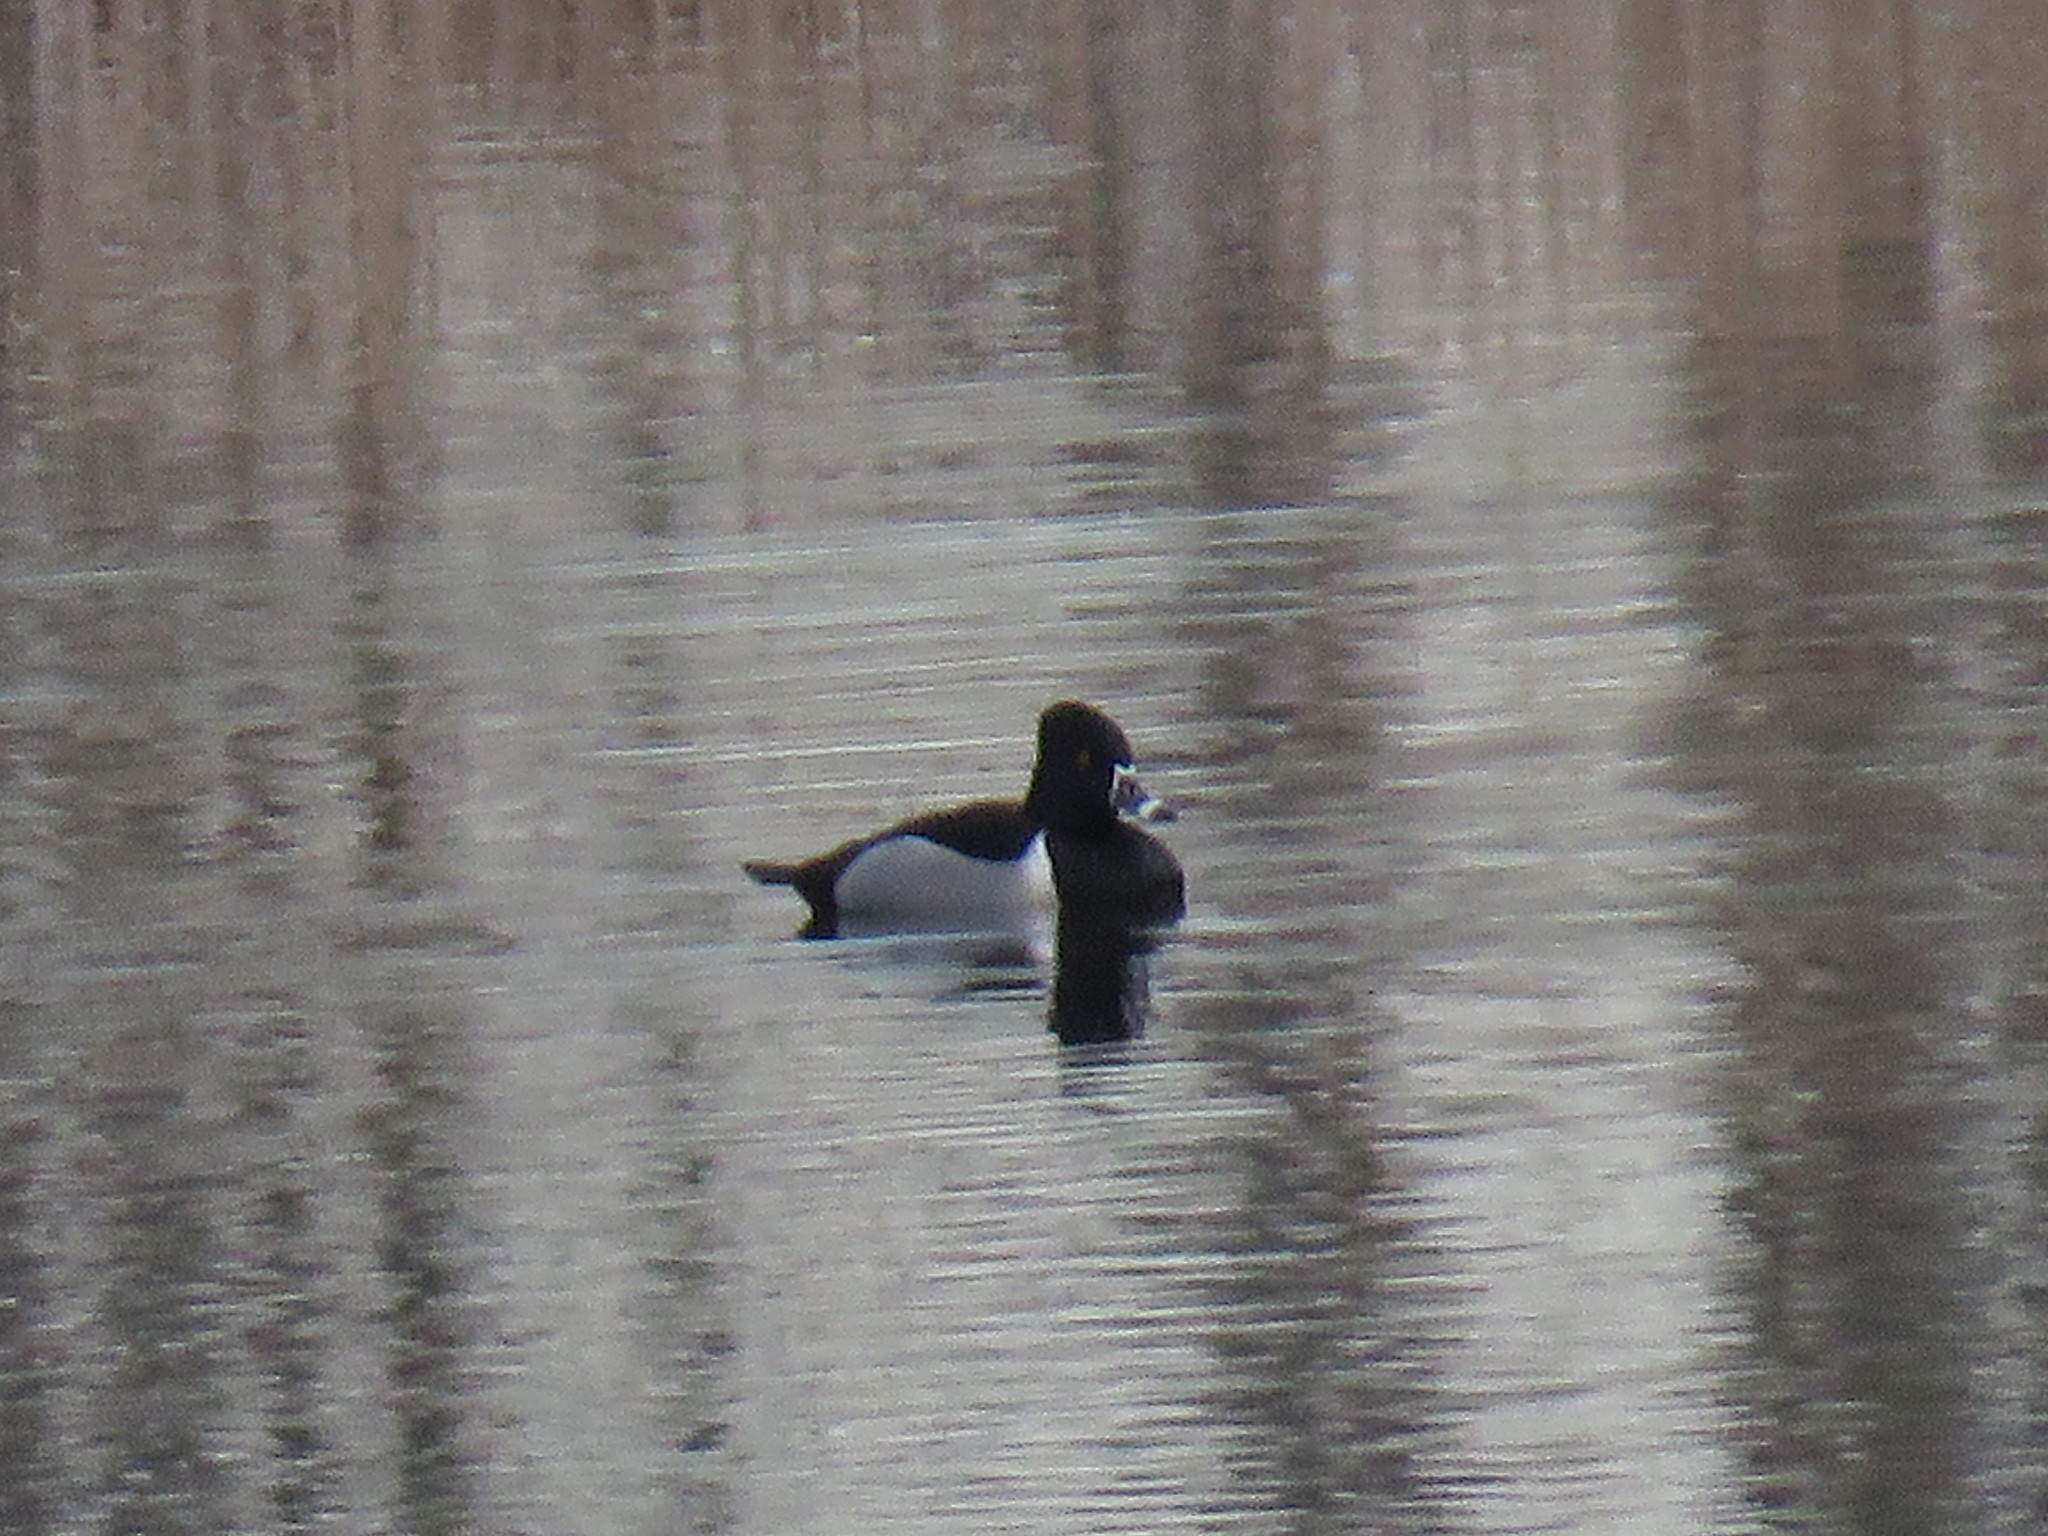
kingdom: Animalia
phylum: Chordata
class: Aves
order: Anseriformes
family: Anatidae
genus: Aythya
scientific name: Aythya collaris
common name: Ring-necked duck
